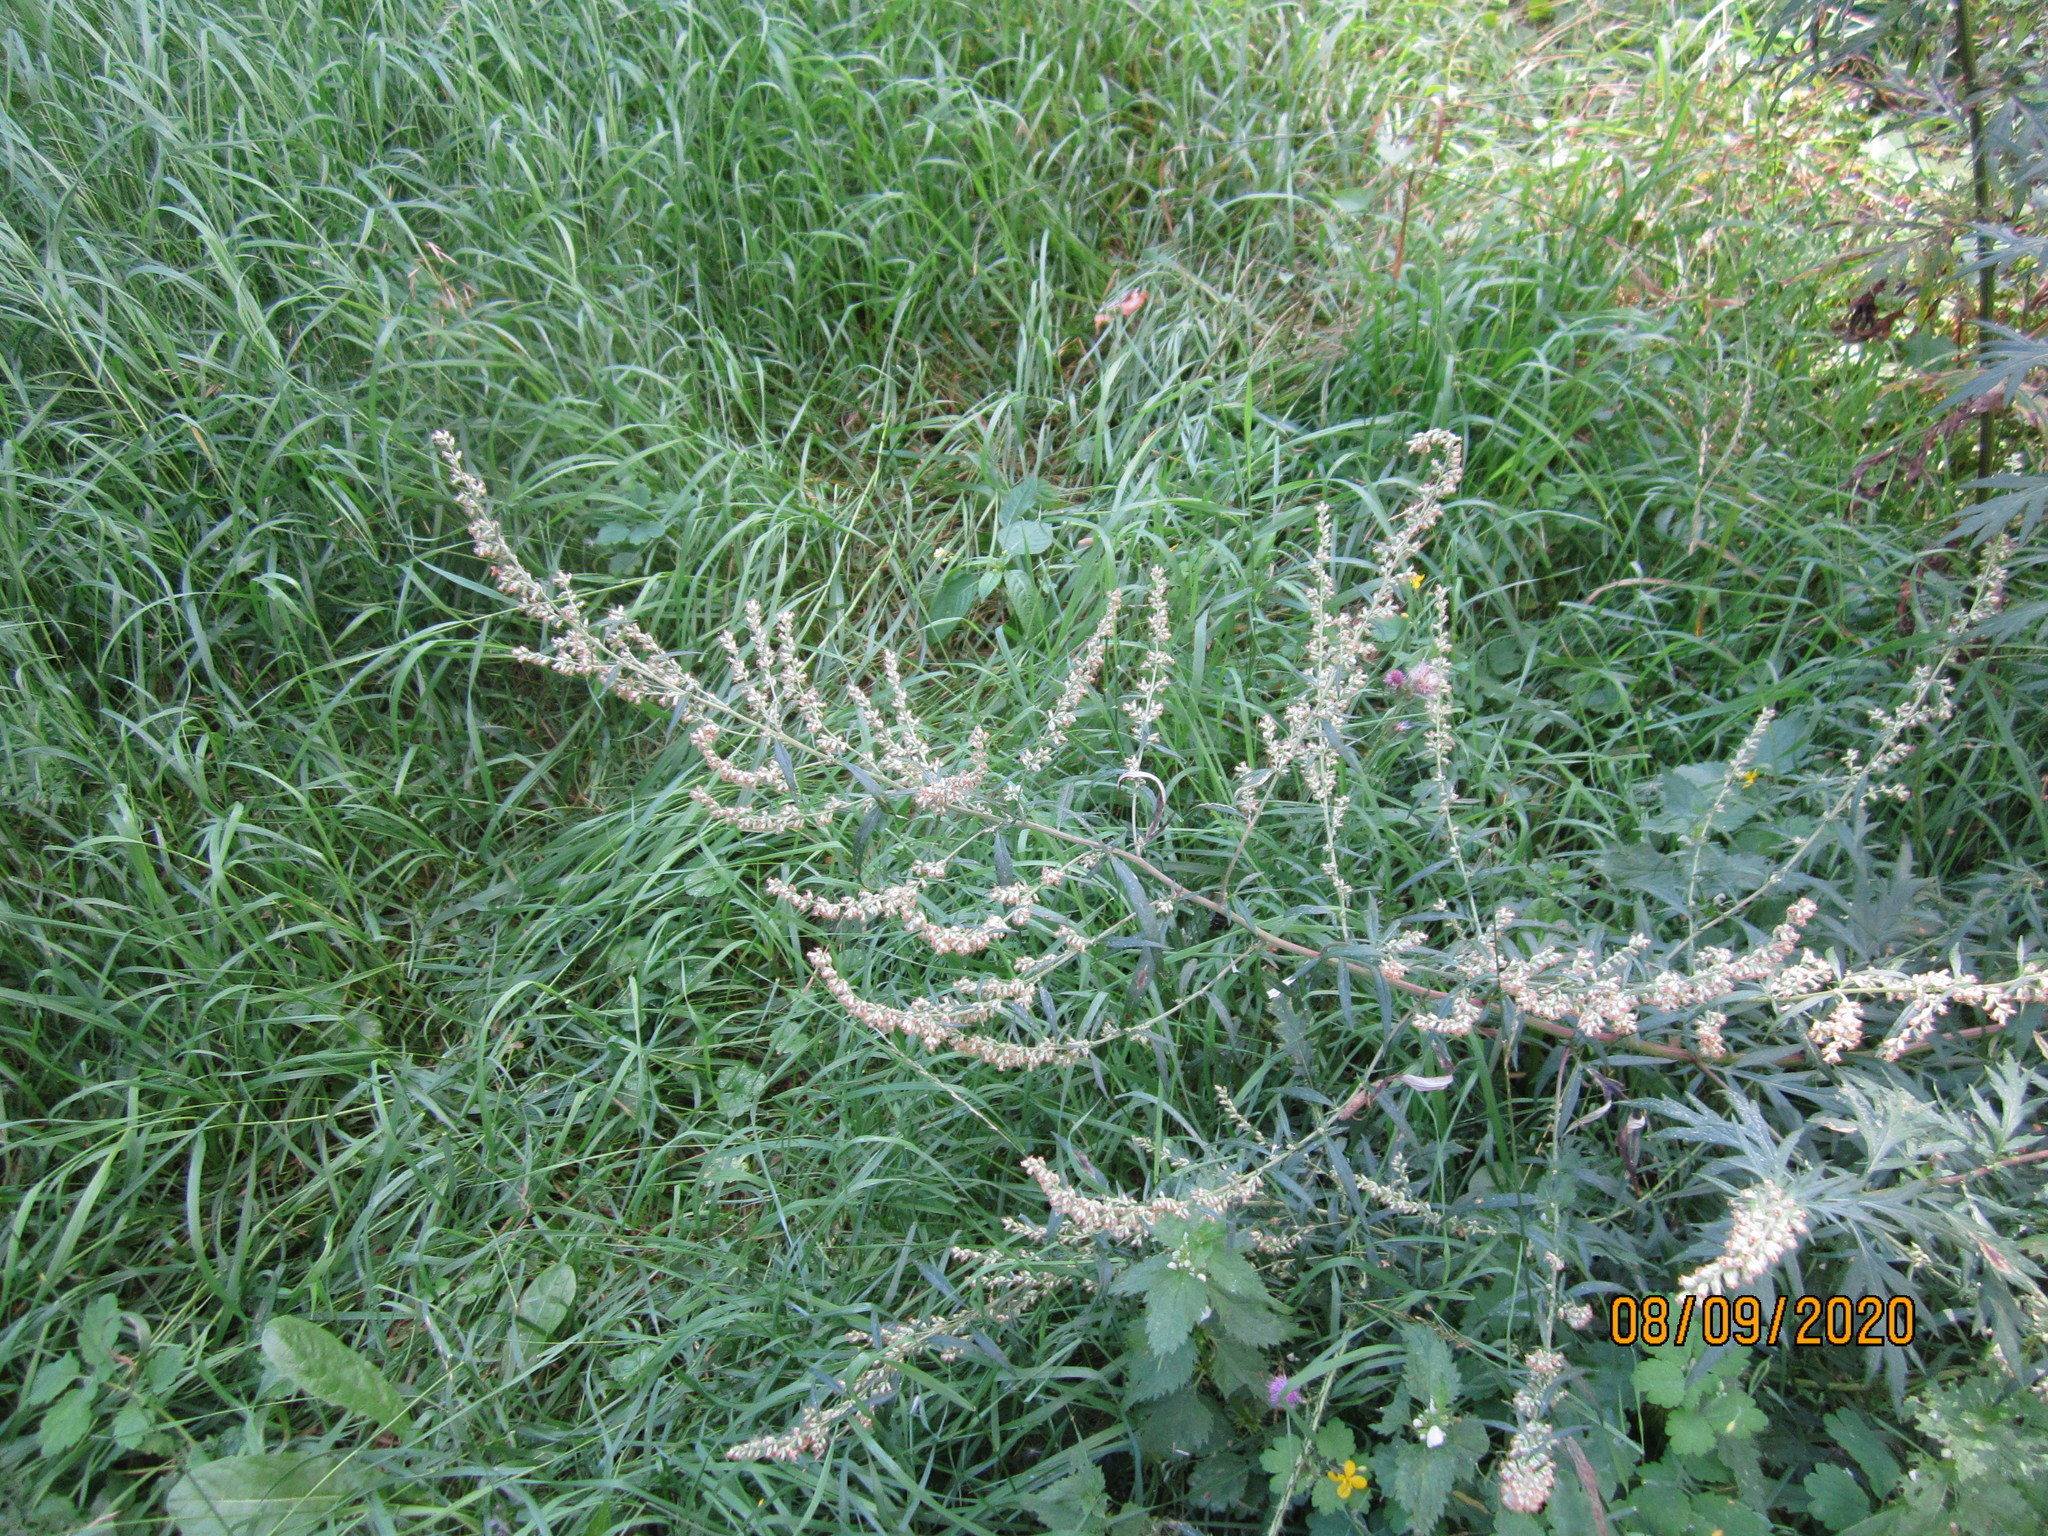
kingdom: Plantae
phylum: Tracheophyta
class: Magnoliopsida
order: Asterales
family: Asteraceae
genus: Artemisia
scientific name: Artemisia vulgaris
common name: Mugwort
